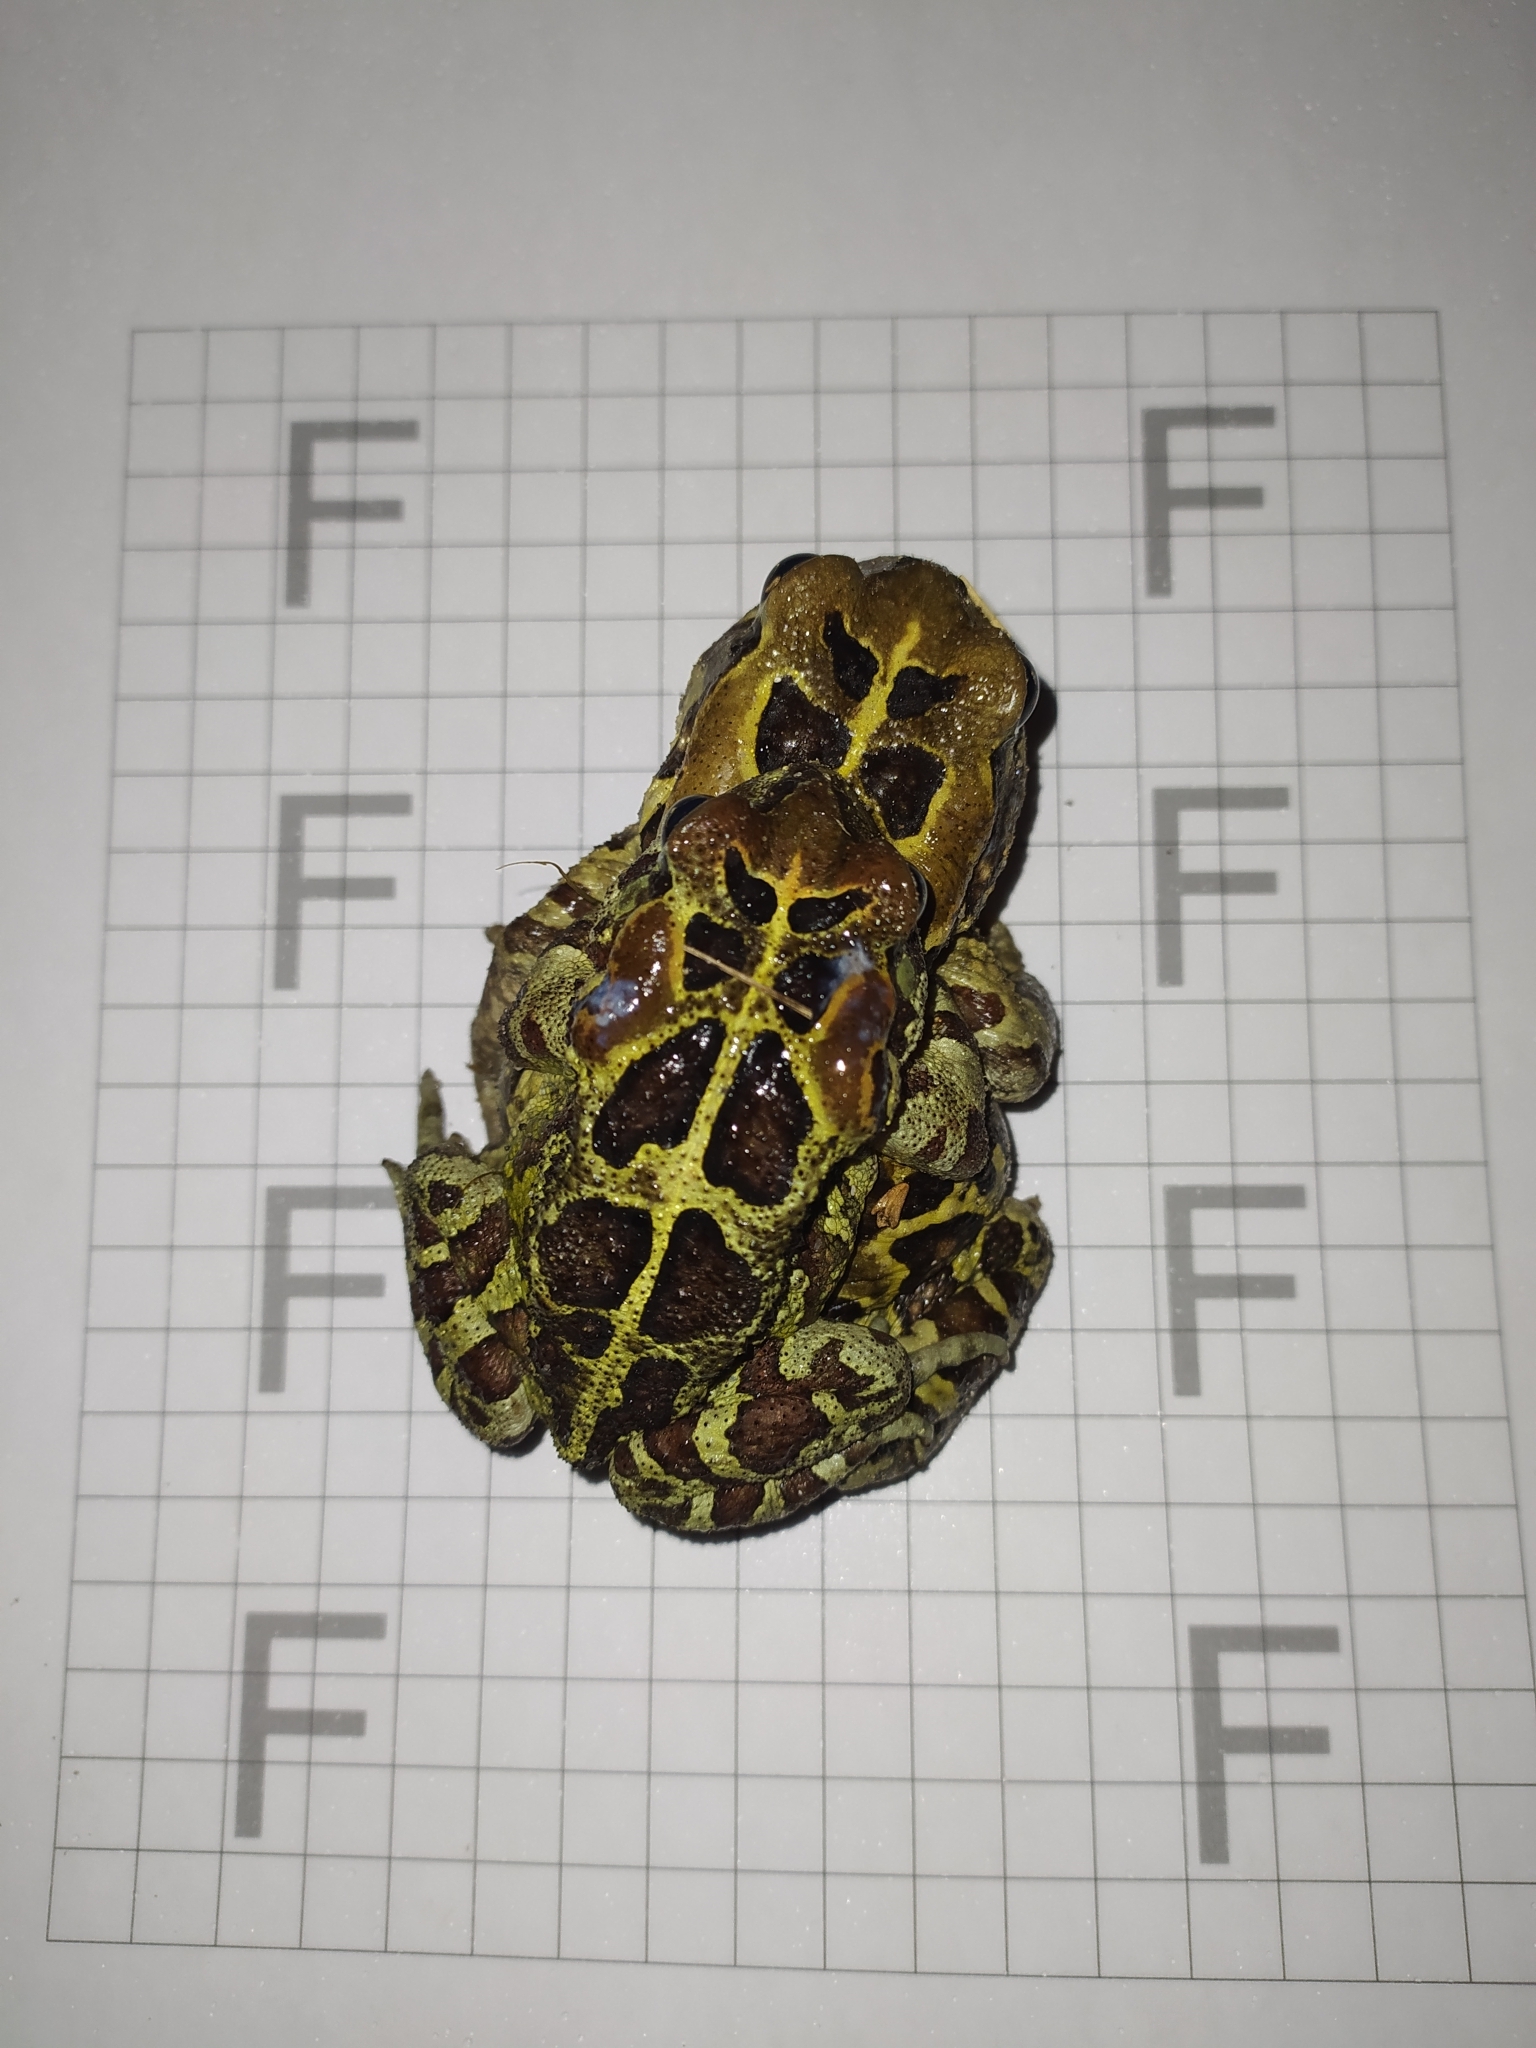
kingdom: Animalia
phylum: Chordata
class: Amphibia
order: Anura
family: Bufonidae
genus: Sclerophrys
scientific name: Sclerophrys pantherina
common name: Panther toad
